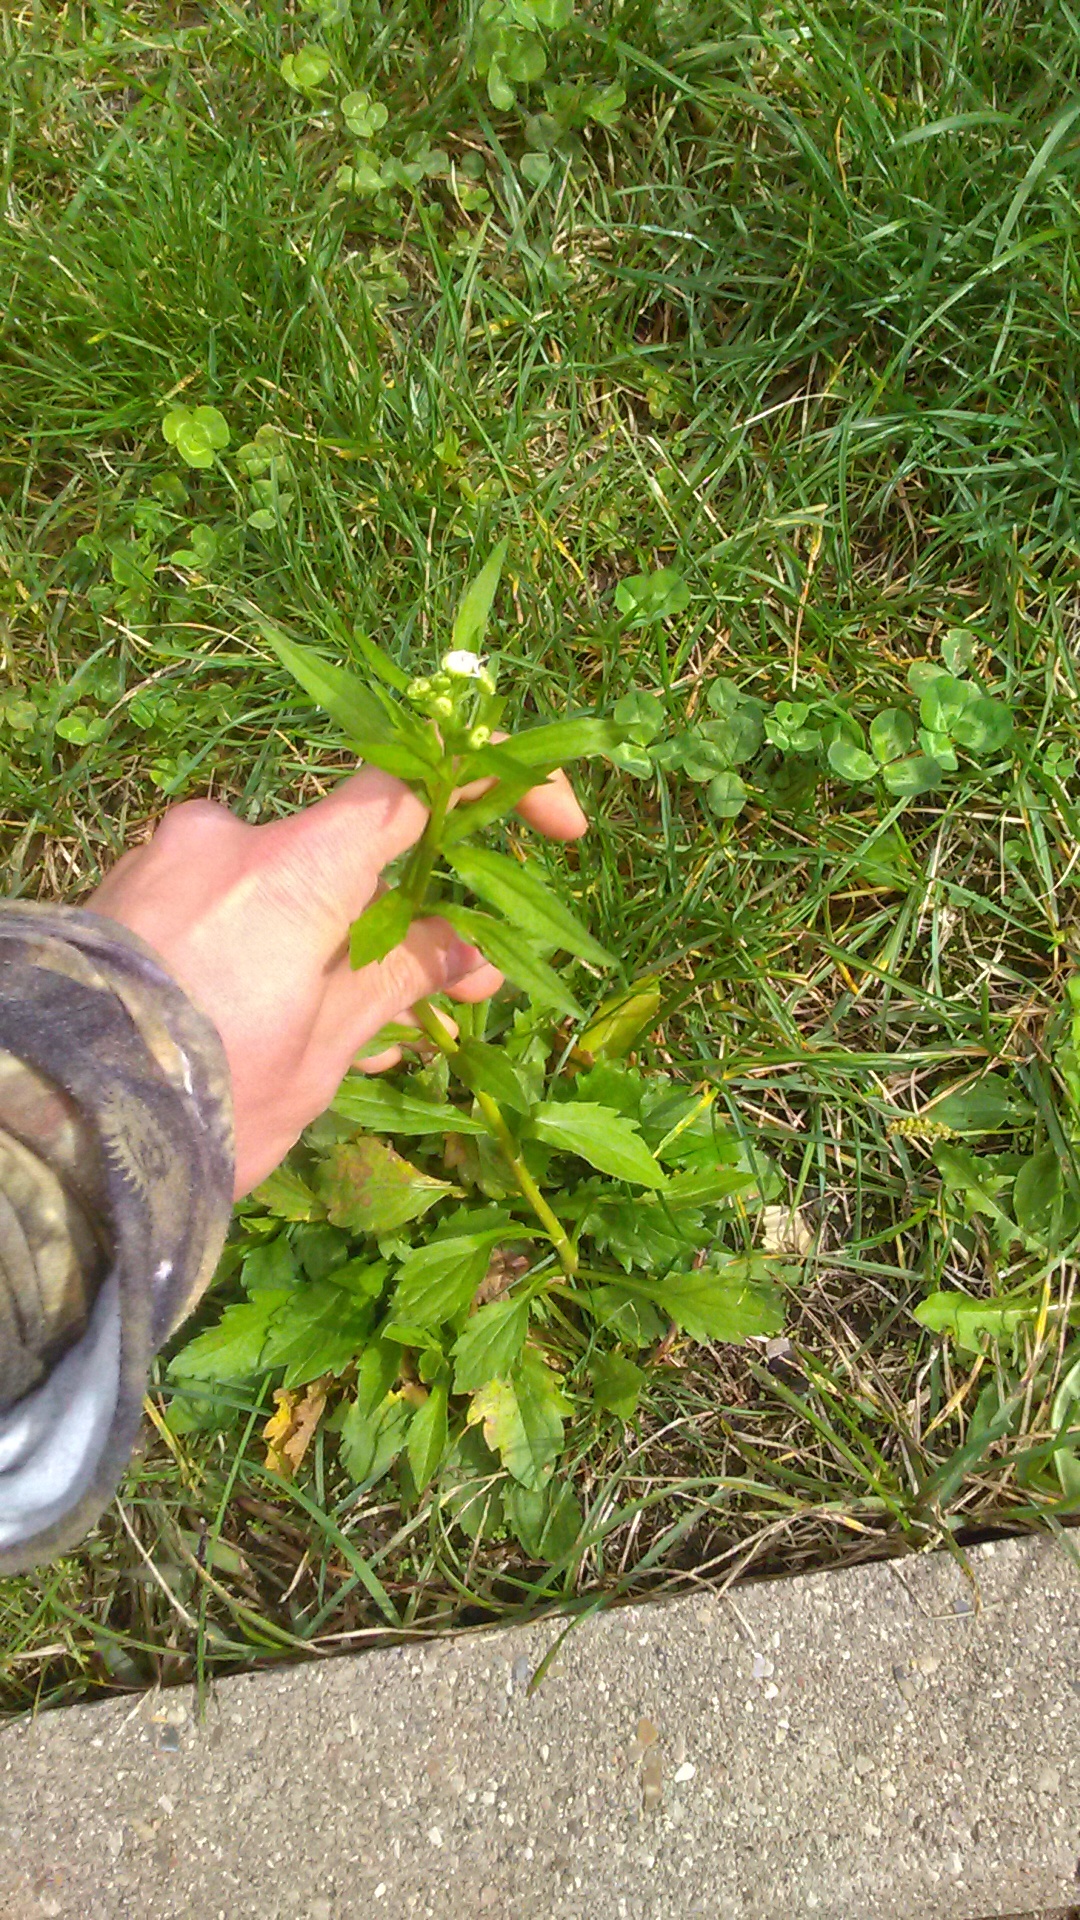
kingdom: Plantae
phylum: Tracheophyta
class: Magnoliopsida
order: Asterales
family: Asteraceae
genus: Erigeron
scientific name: Erigeron annuus
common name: Tall fleabane
